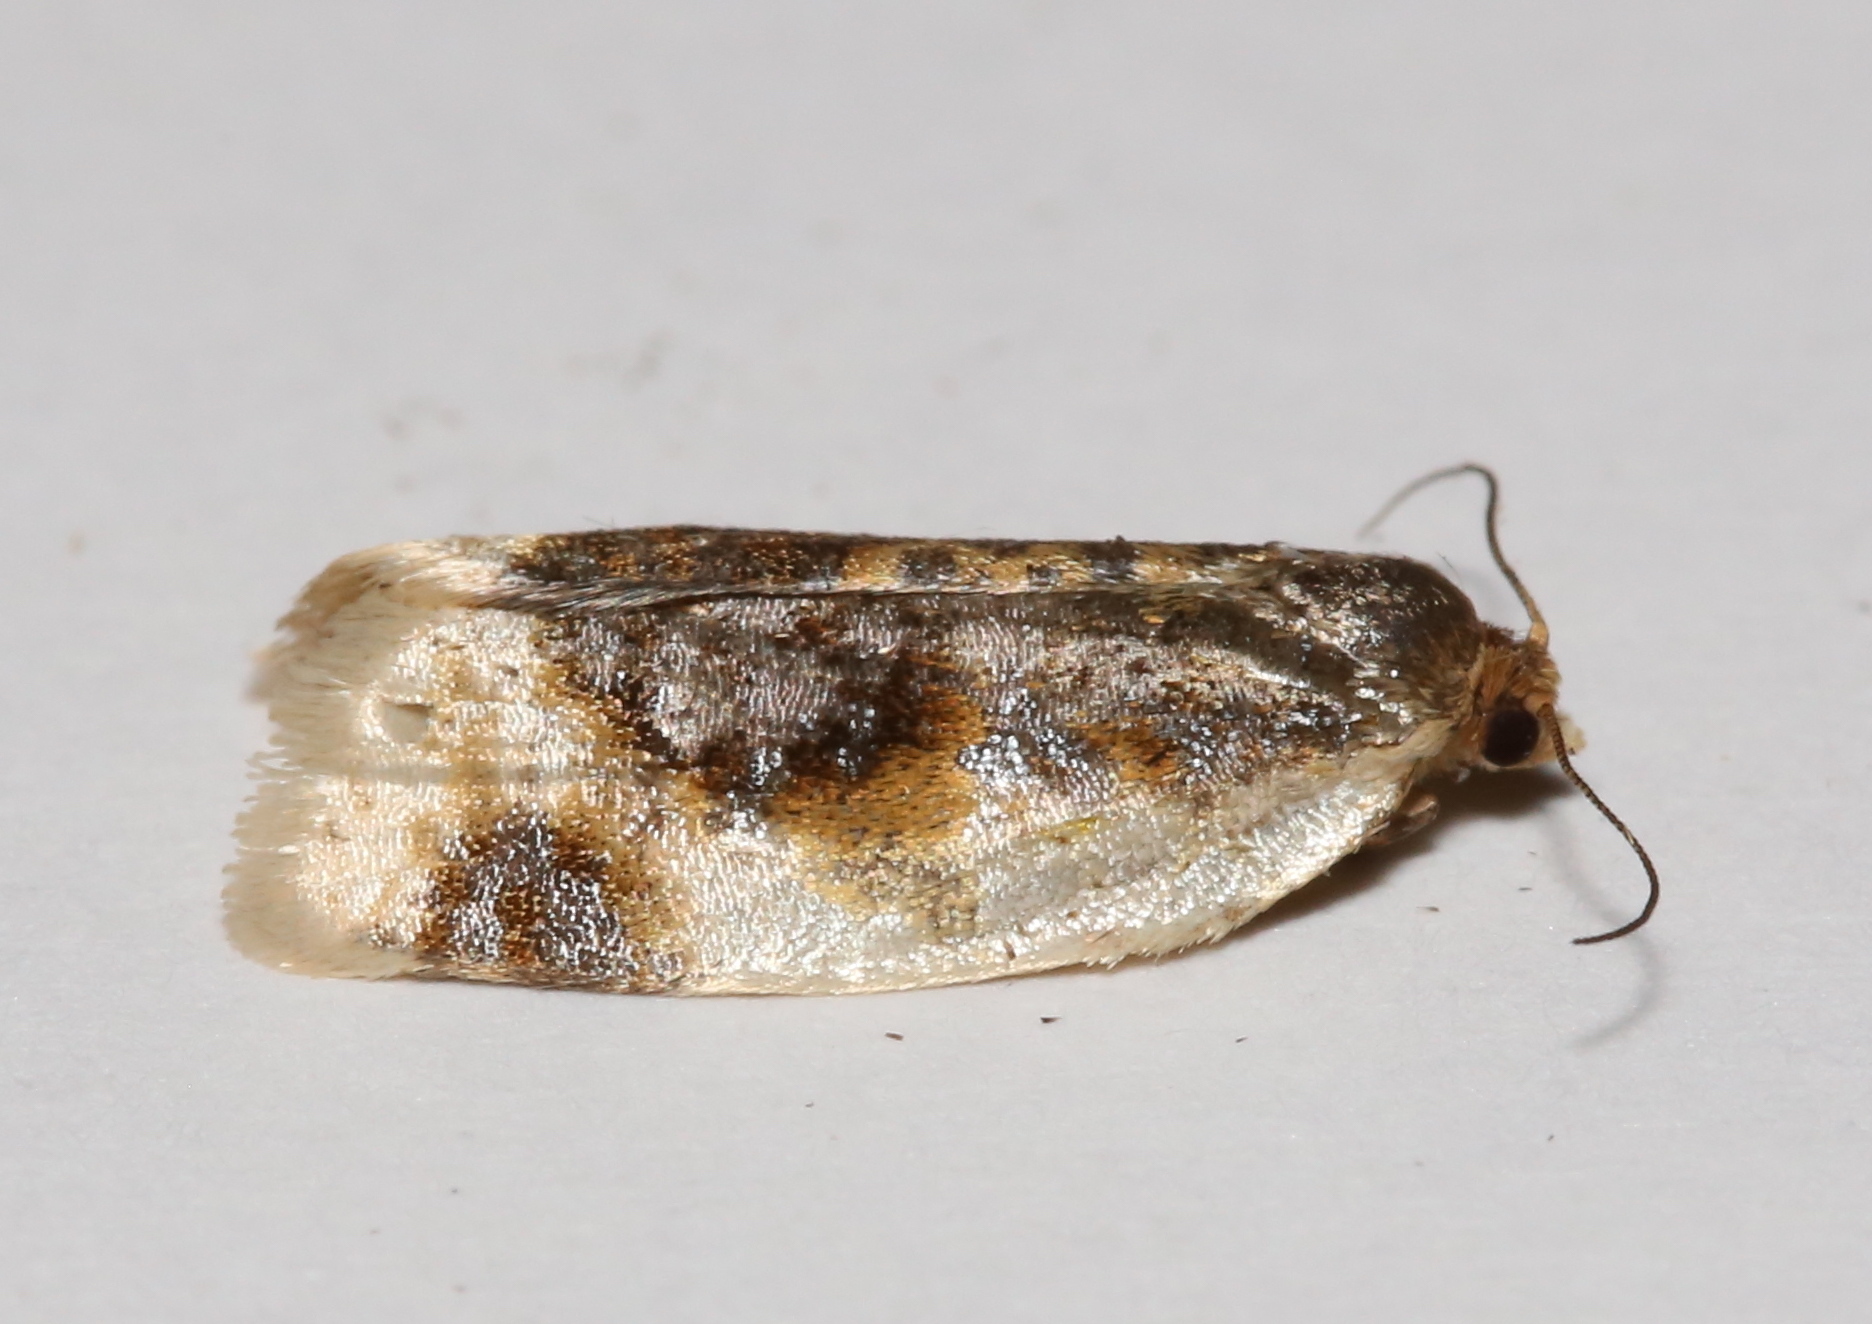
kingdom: Animalia
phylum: Arthropoda
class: Insecta
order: Lepidoptera
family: Tortricidae
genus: Clepsis
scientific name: Clepsis melaleucanus
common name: American apple tortrix
